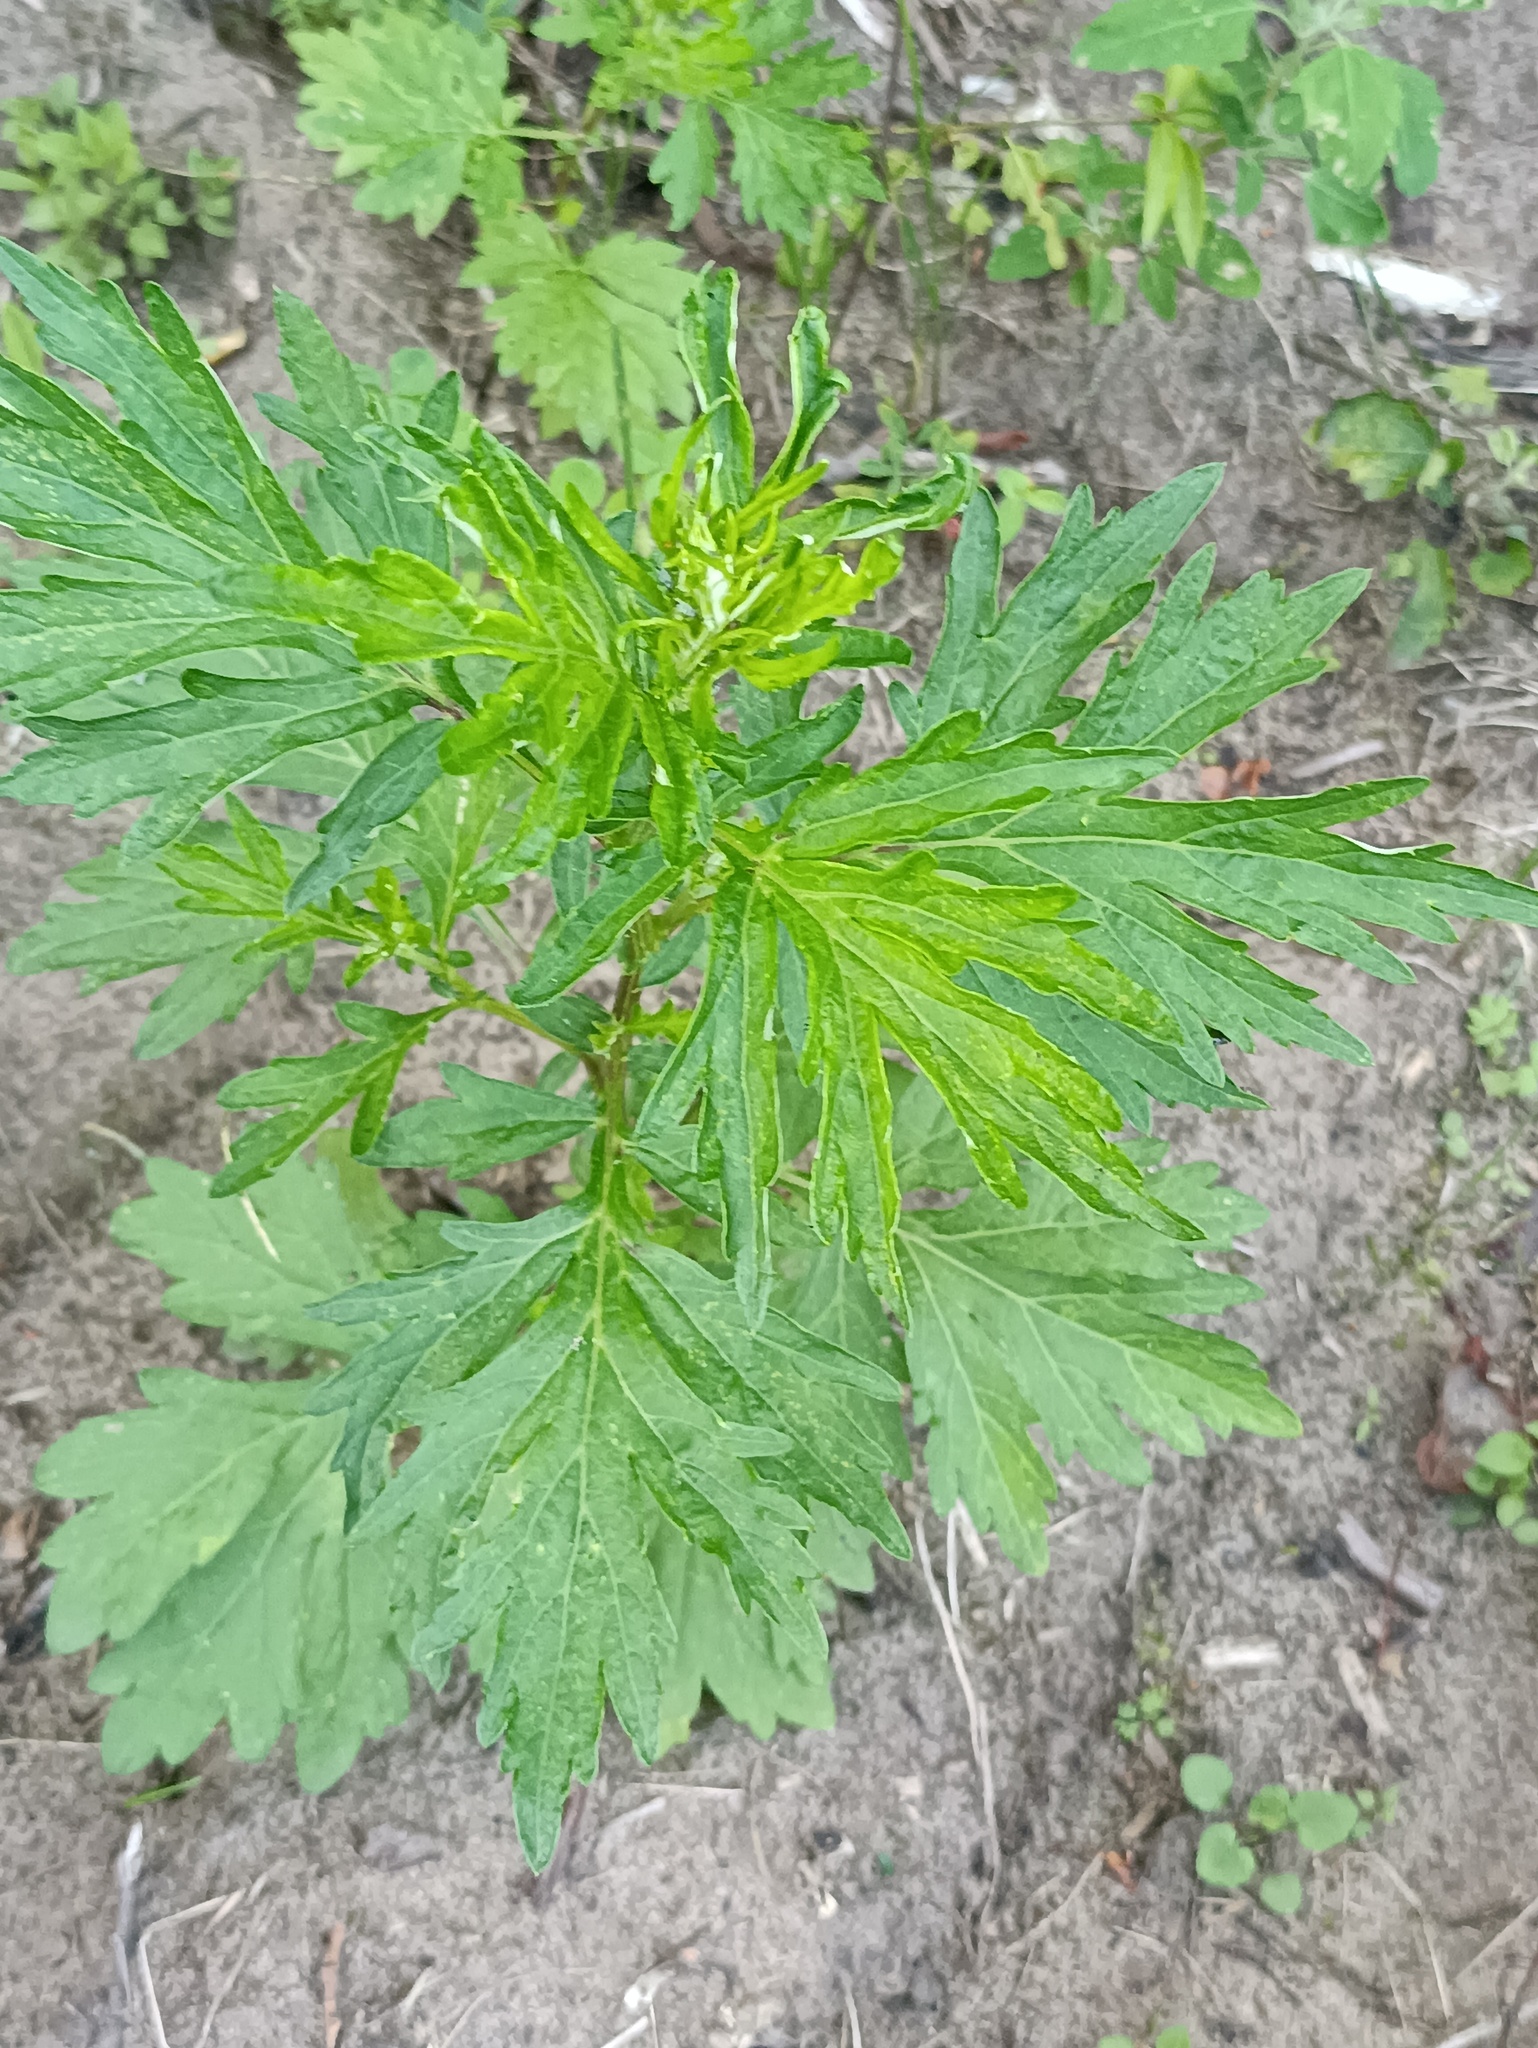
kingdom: Plantae
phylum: Tracheophyta
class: Magnoliopsida
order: Asterales
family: Asteraceae
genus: Artemisia
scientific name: Artemisia vulgaris
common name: Mugwort
